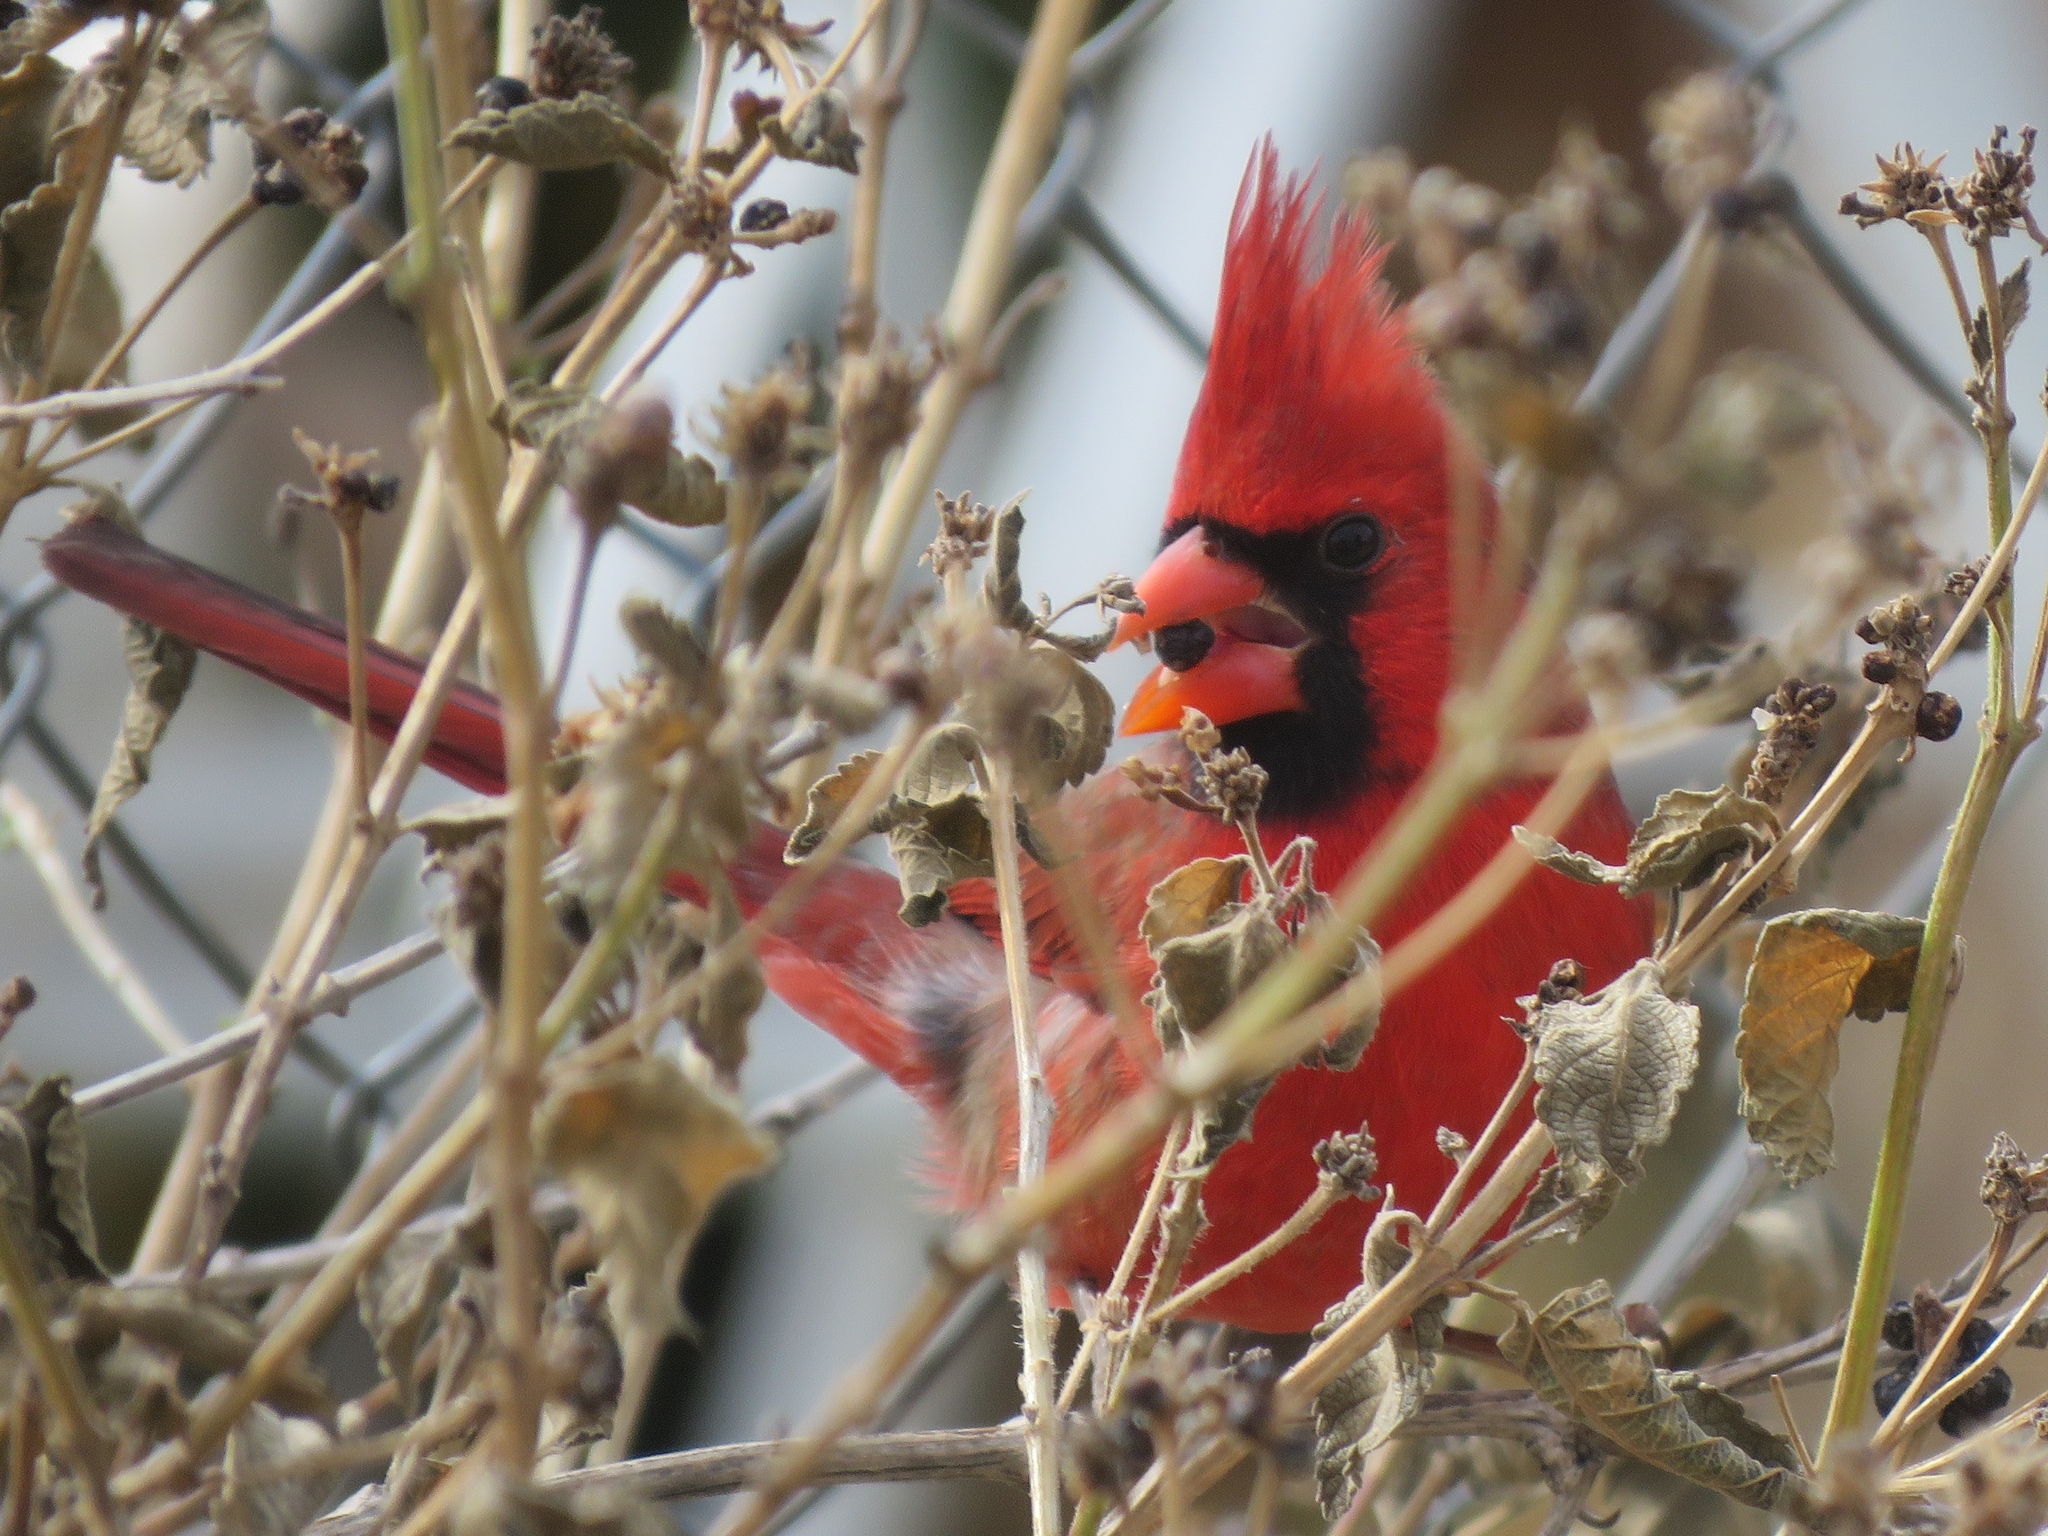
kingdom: Animalia
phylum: Chordata
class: Aves
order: Passeriformes
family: Cardinalidae
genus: Cardinalis
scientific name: Cardinalis cardinalis
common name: Northern cardinal
